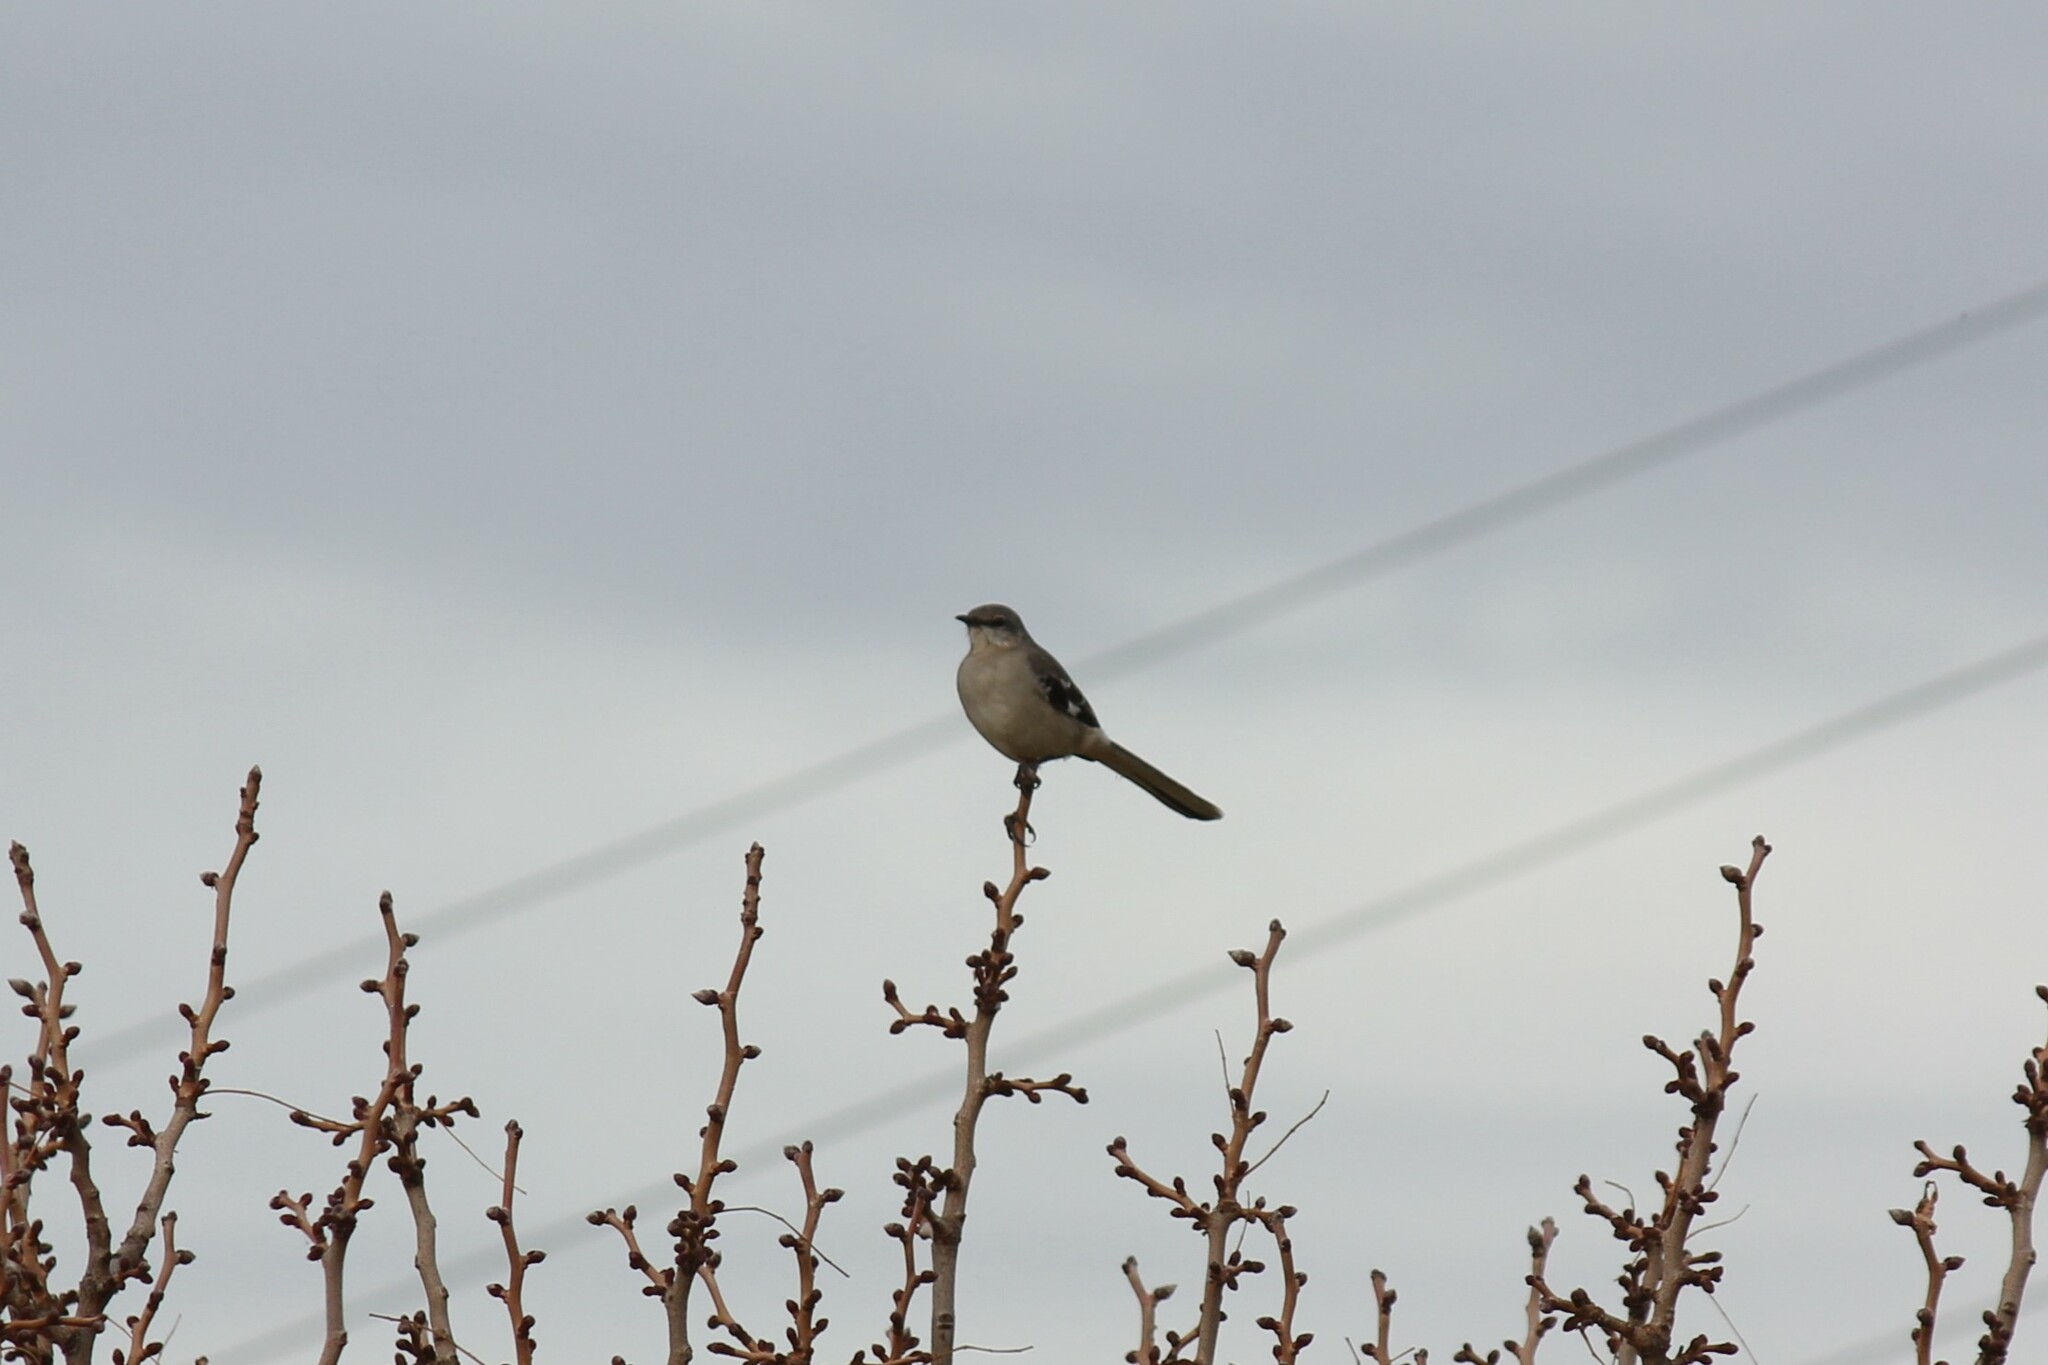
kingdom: Animalia
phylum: Chordata
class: Aves
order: Passeriformes
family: Mimidae
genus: Mimus
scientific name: Mimus polyglottos
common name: Northern mockingbird
